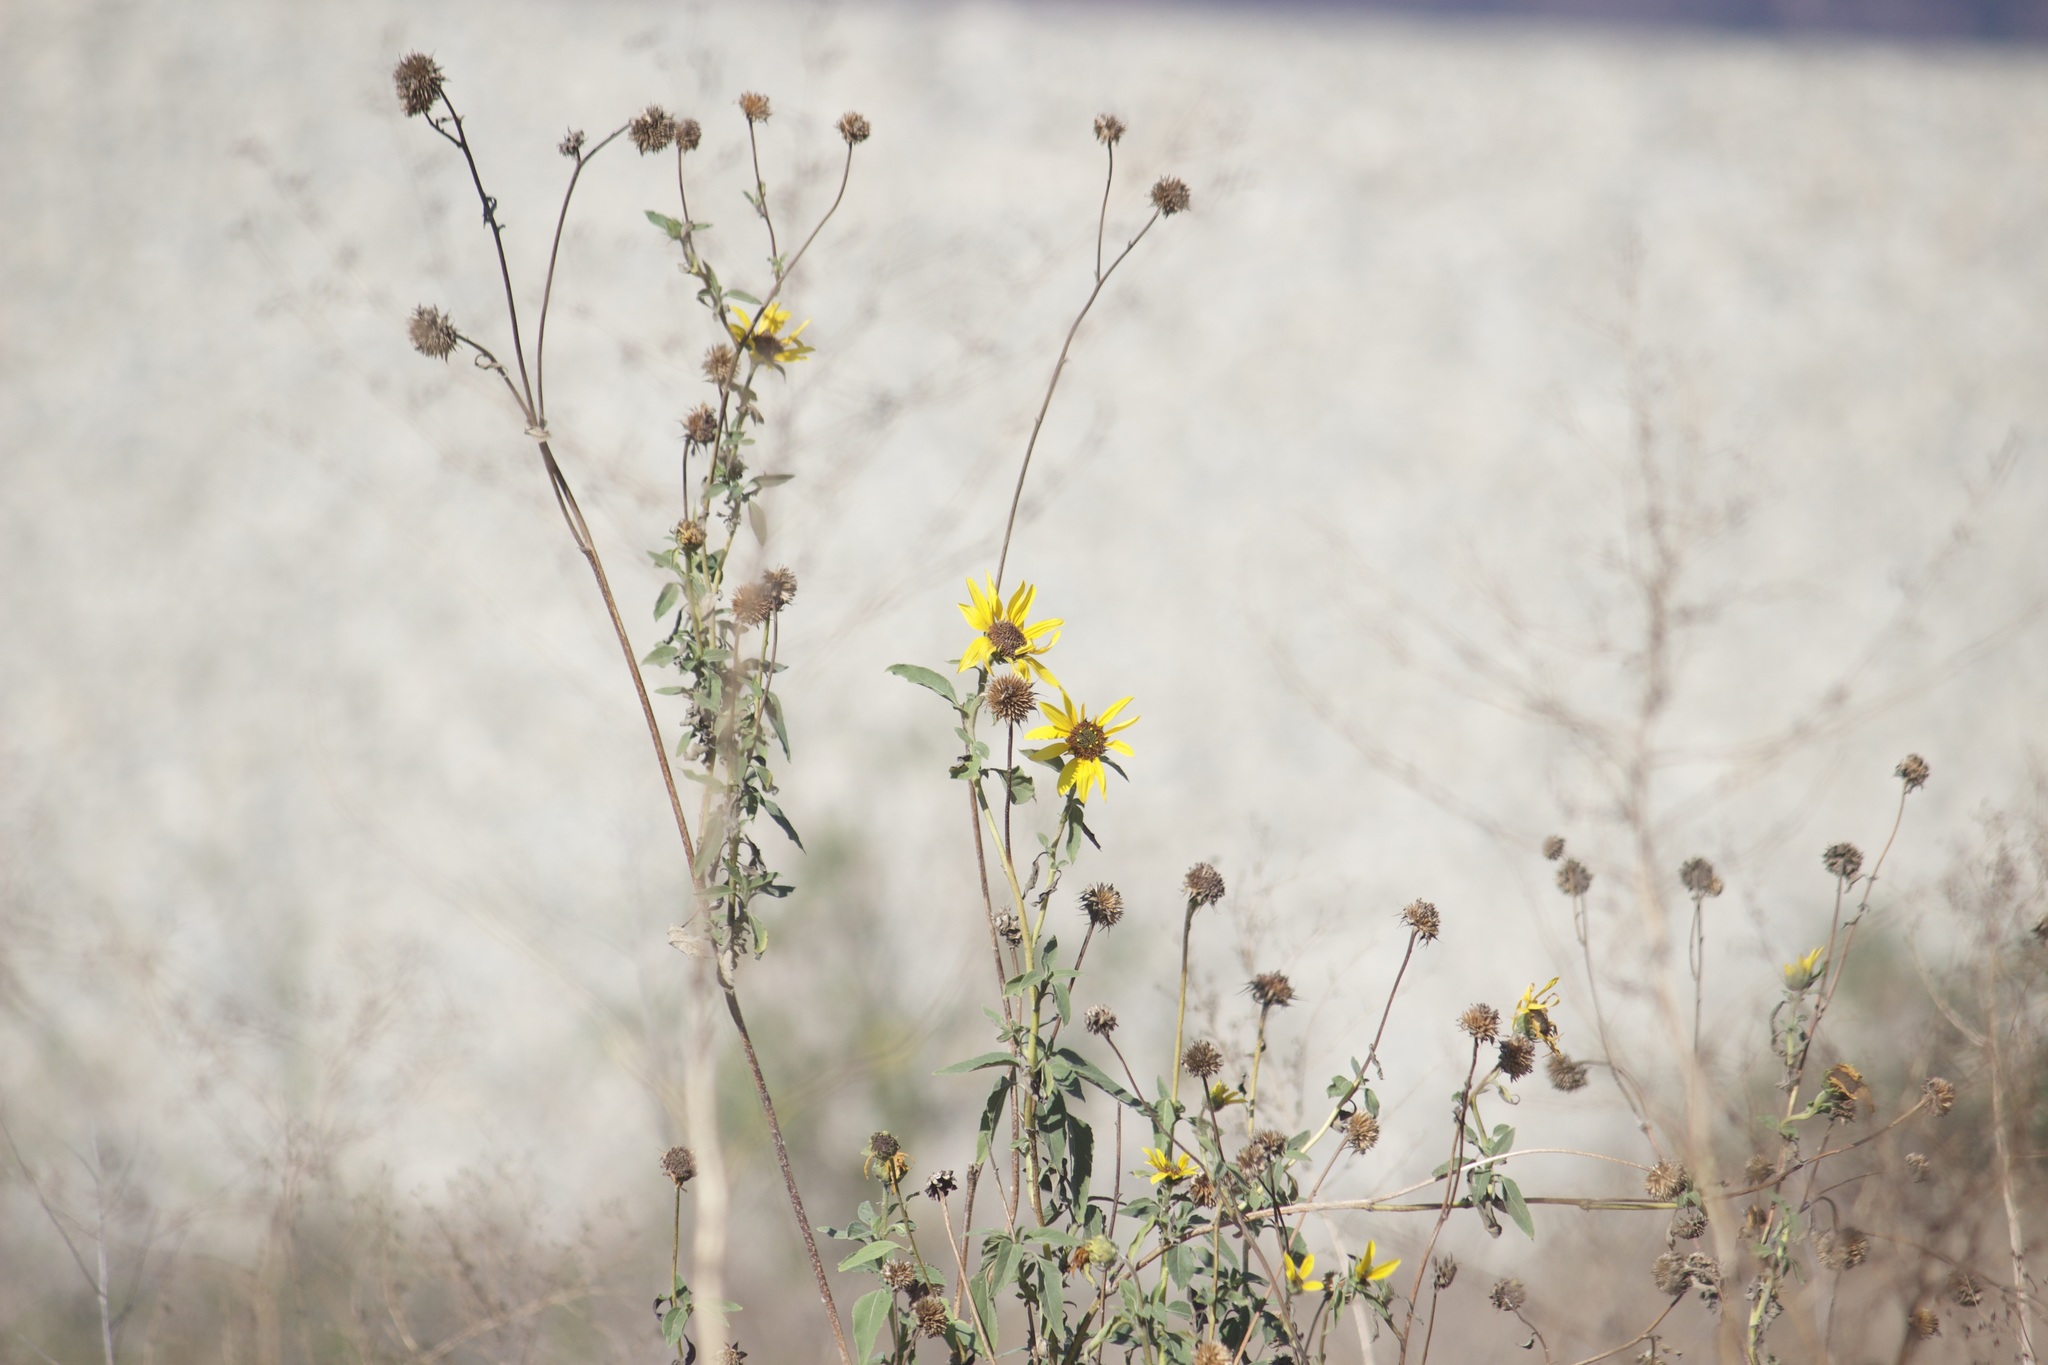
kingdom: Plantae
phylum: Tracheophyta
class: Magnoliopsida
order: Asterales
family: Asteraceae
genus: Helianthus
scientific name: Helianthus annuus
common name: Sunflower
